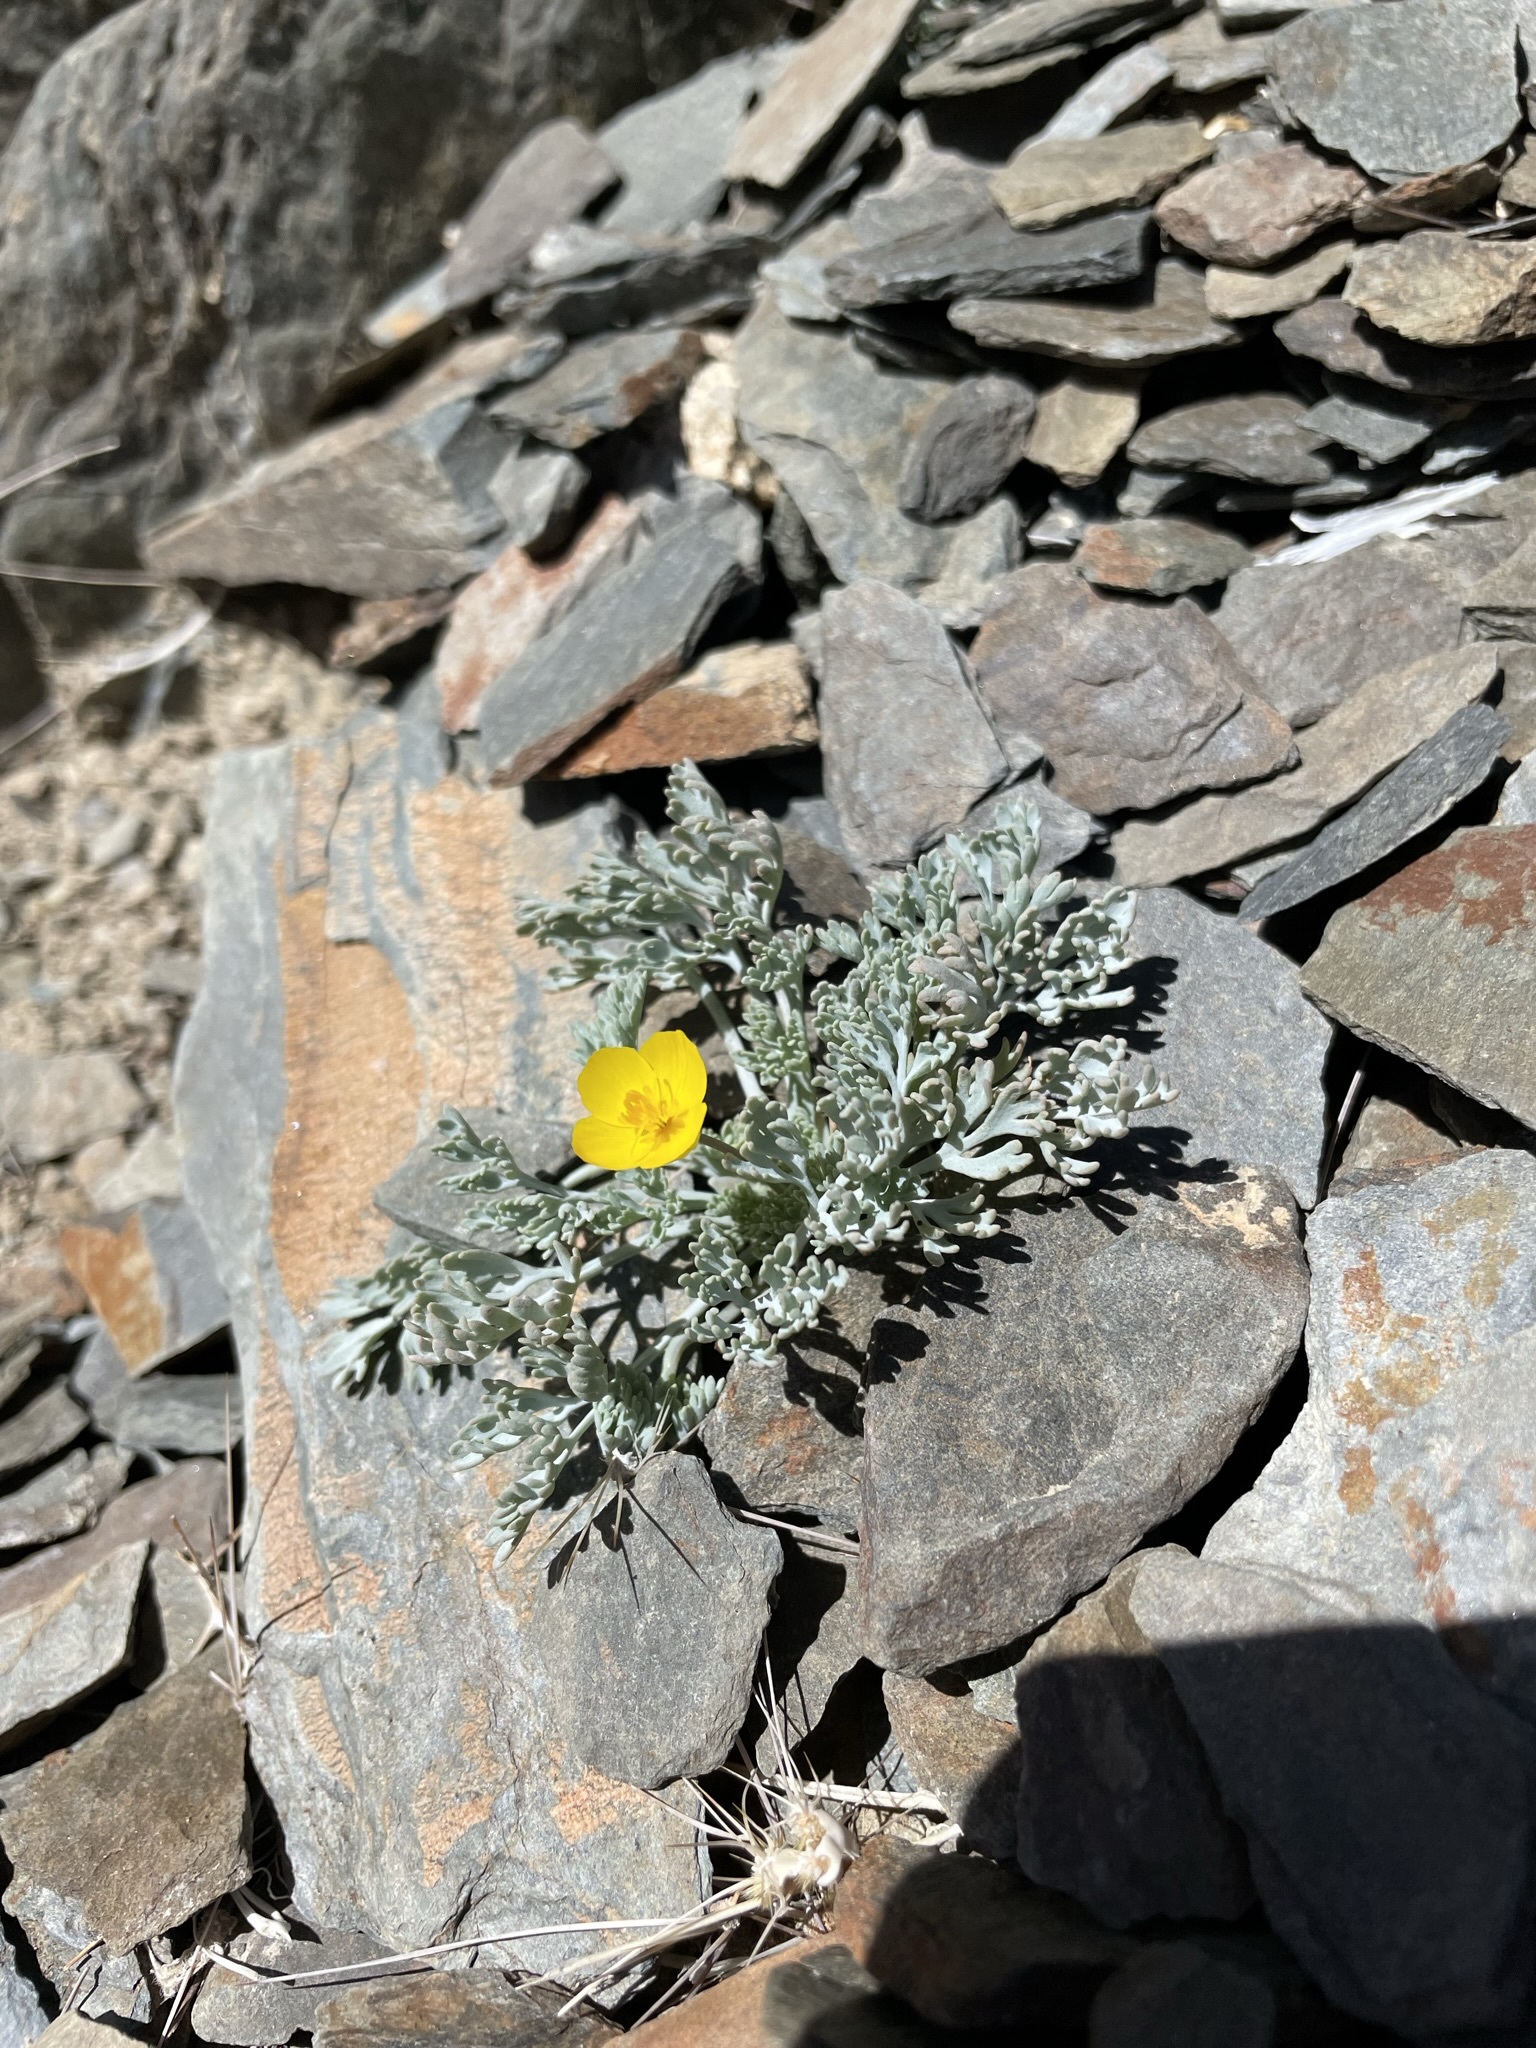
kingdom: Plantae
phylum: Tracheophyta
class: Magnoliopsida
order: Ranunculales
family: Papaveraceae
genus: Eschscholzia
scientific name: Eschscholzia minutiflora
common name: Small-flower california-poppy
